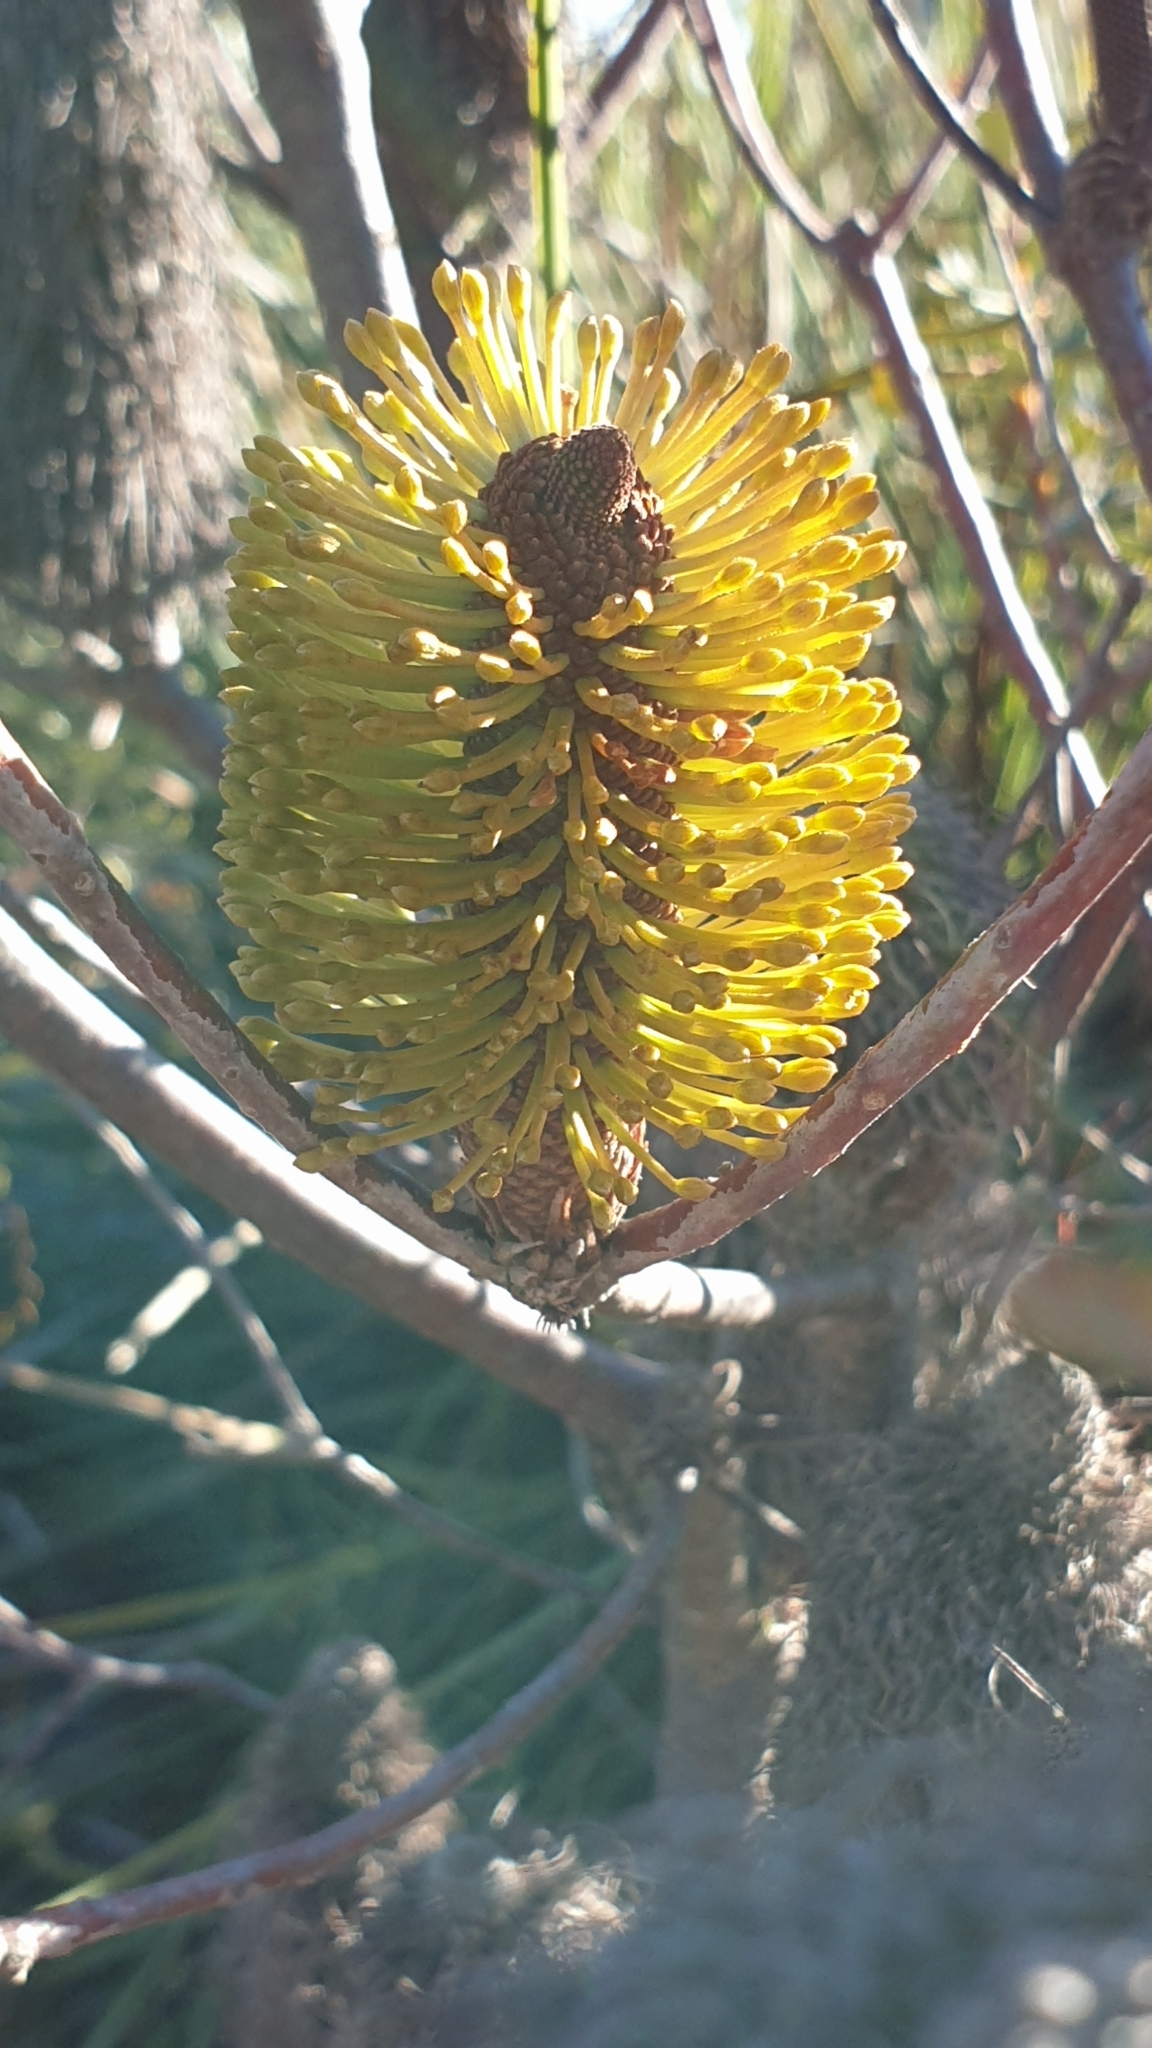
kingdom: Plantae
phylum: Tracheophyta
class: Magnoliopsida
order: Proteales
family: Proteaceae
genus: Banksia
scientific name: Banksia marginata
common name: Silver banksia
